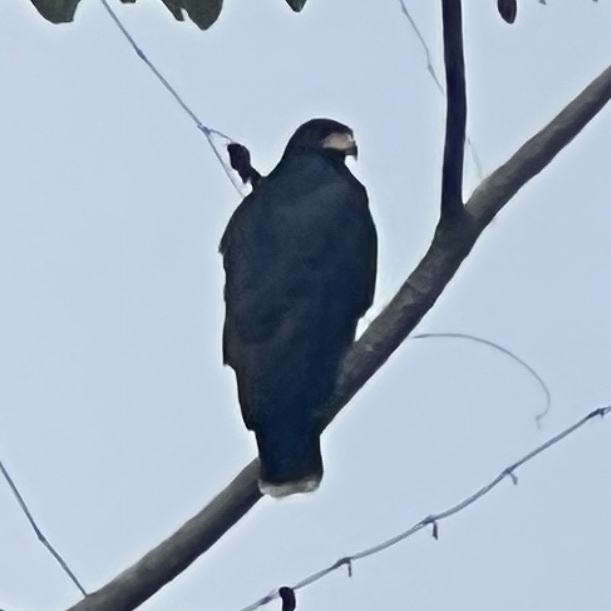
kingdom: Animalia
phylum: Chordata
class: Aves
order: Accipitriformes
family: Accipitridae
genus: Buteogallus
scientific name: Buteogallus anthracinus
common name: Common black hawk
